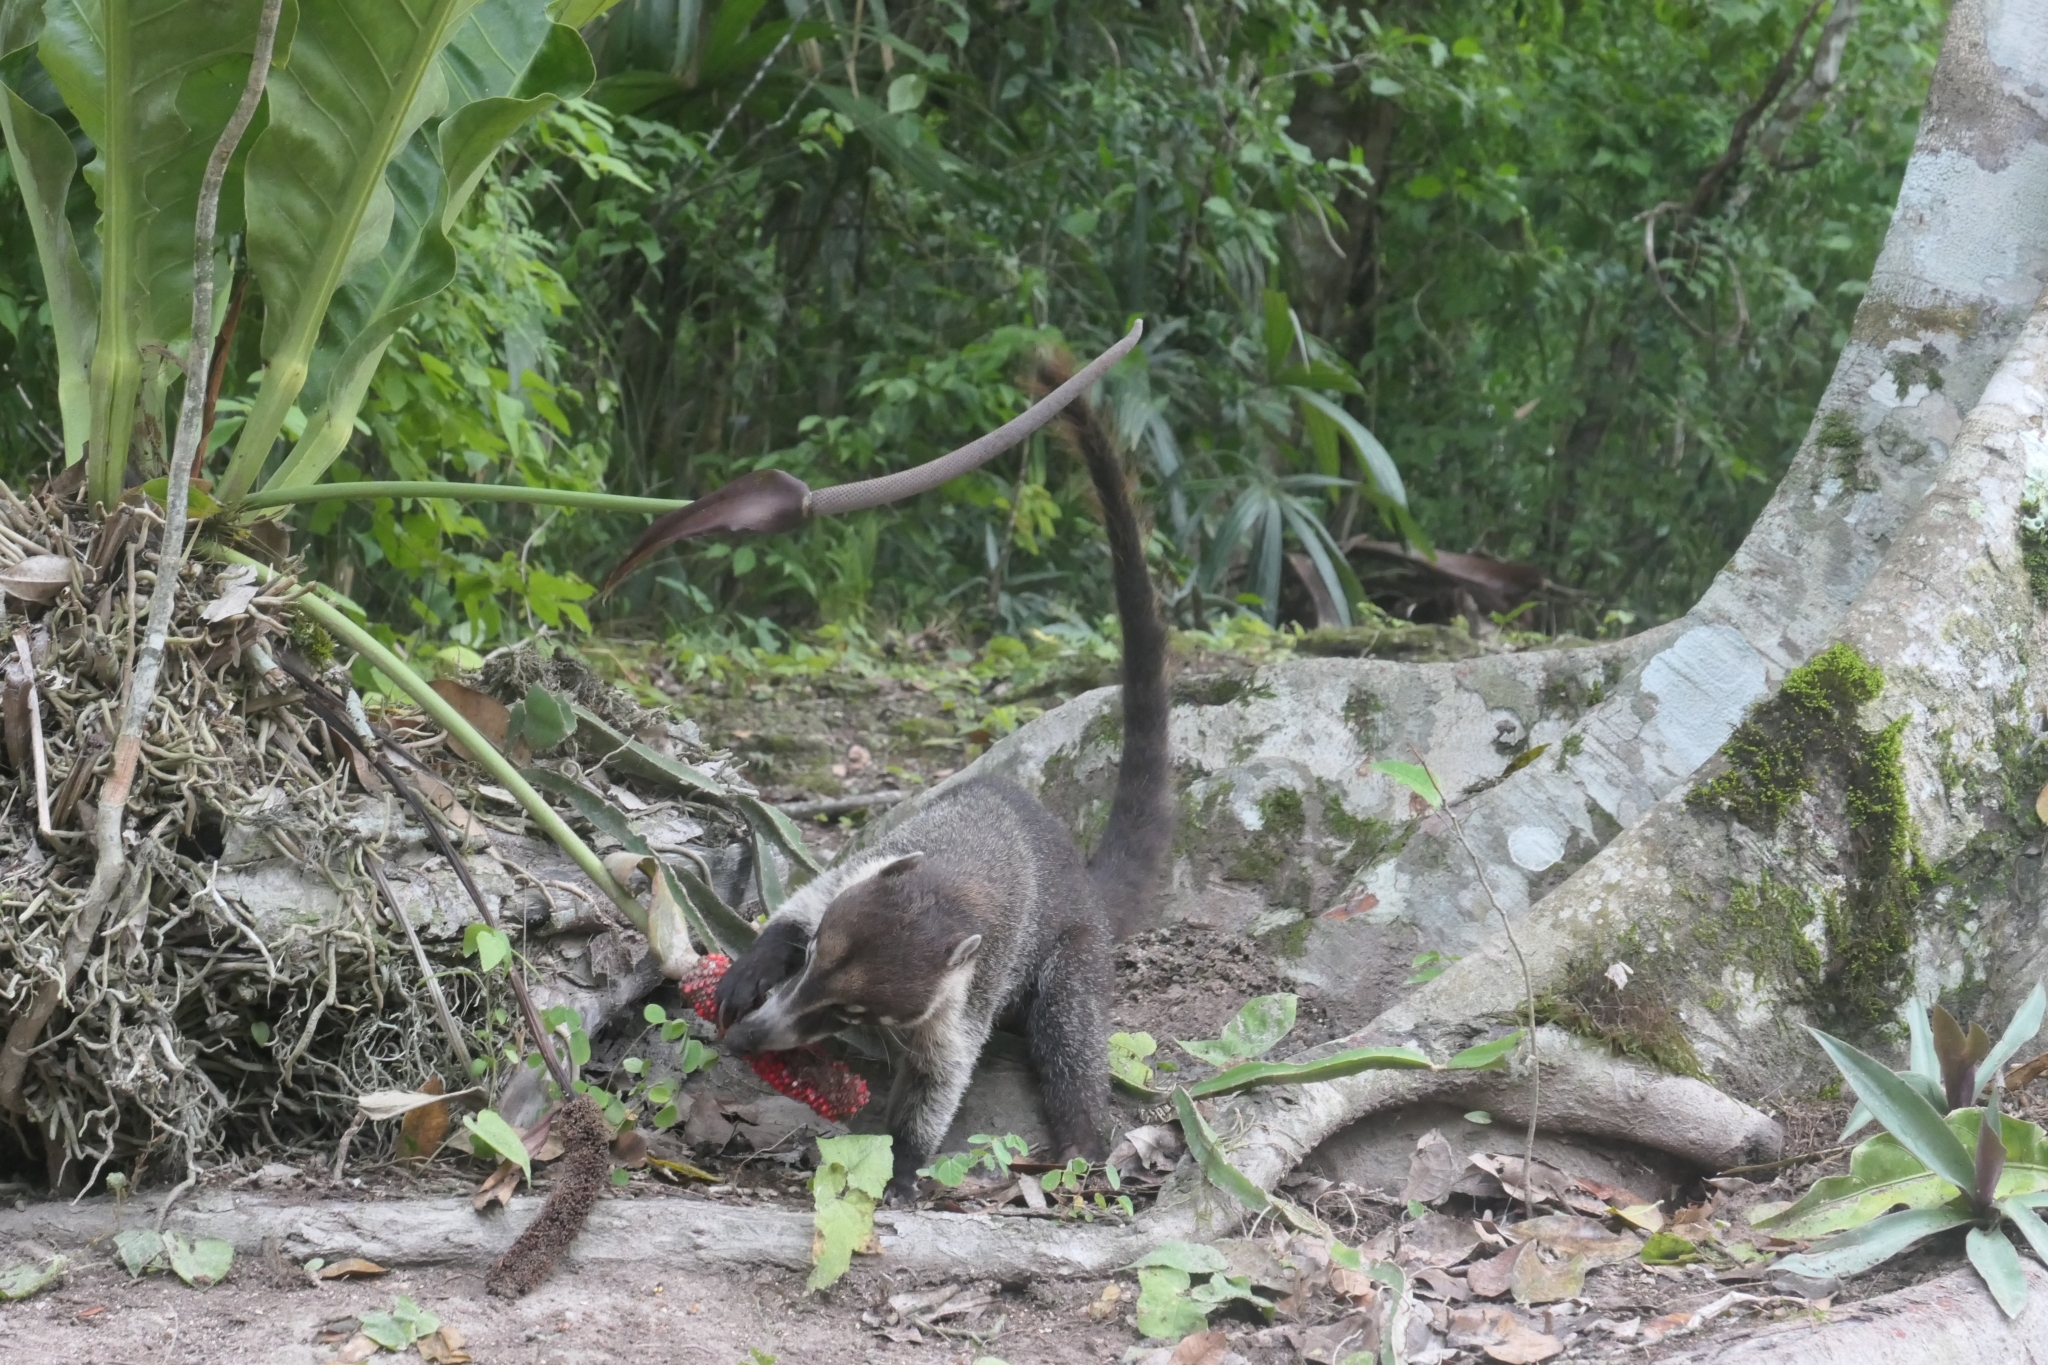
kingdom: Animalia
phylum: Chordata
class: Mammalia
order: Carnivora
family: Procyonidae
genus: Nasua
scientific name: Nasua narica
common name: White-nosed coati
